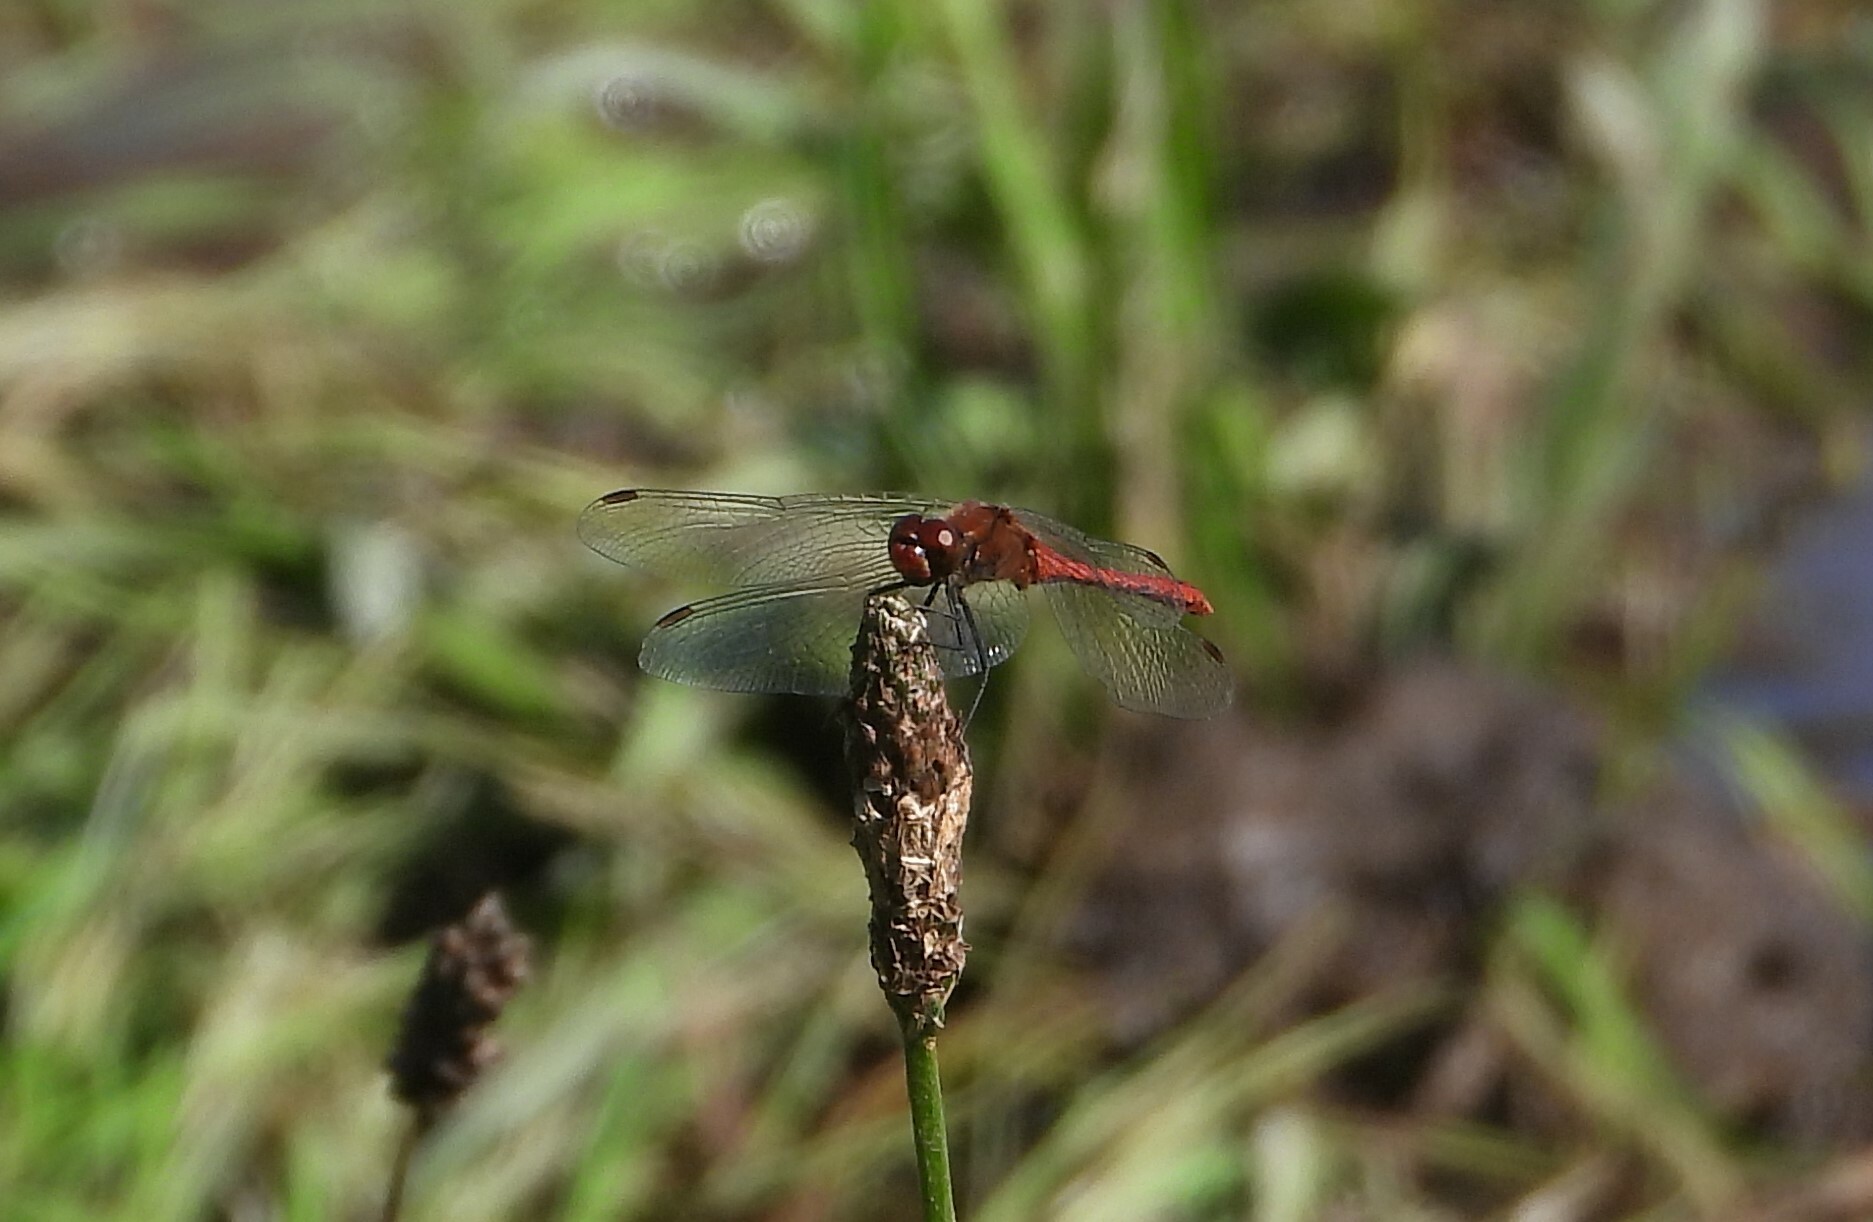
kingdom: Animalia
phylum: Arthropoda
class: Insecta
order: Odonata
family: Libellulidae
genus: Sympetrum
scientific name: Sympetrum sanguineum
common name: Ruddy darter
